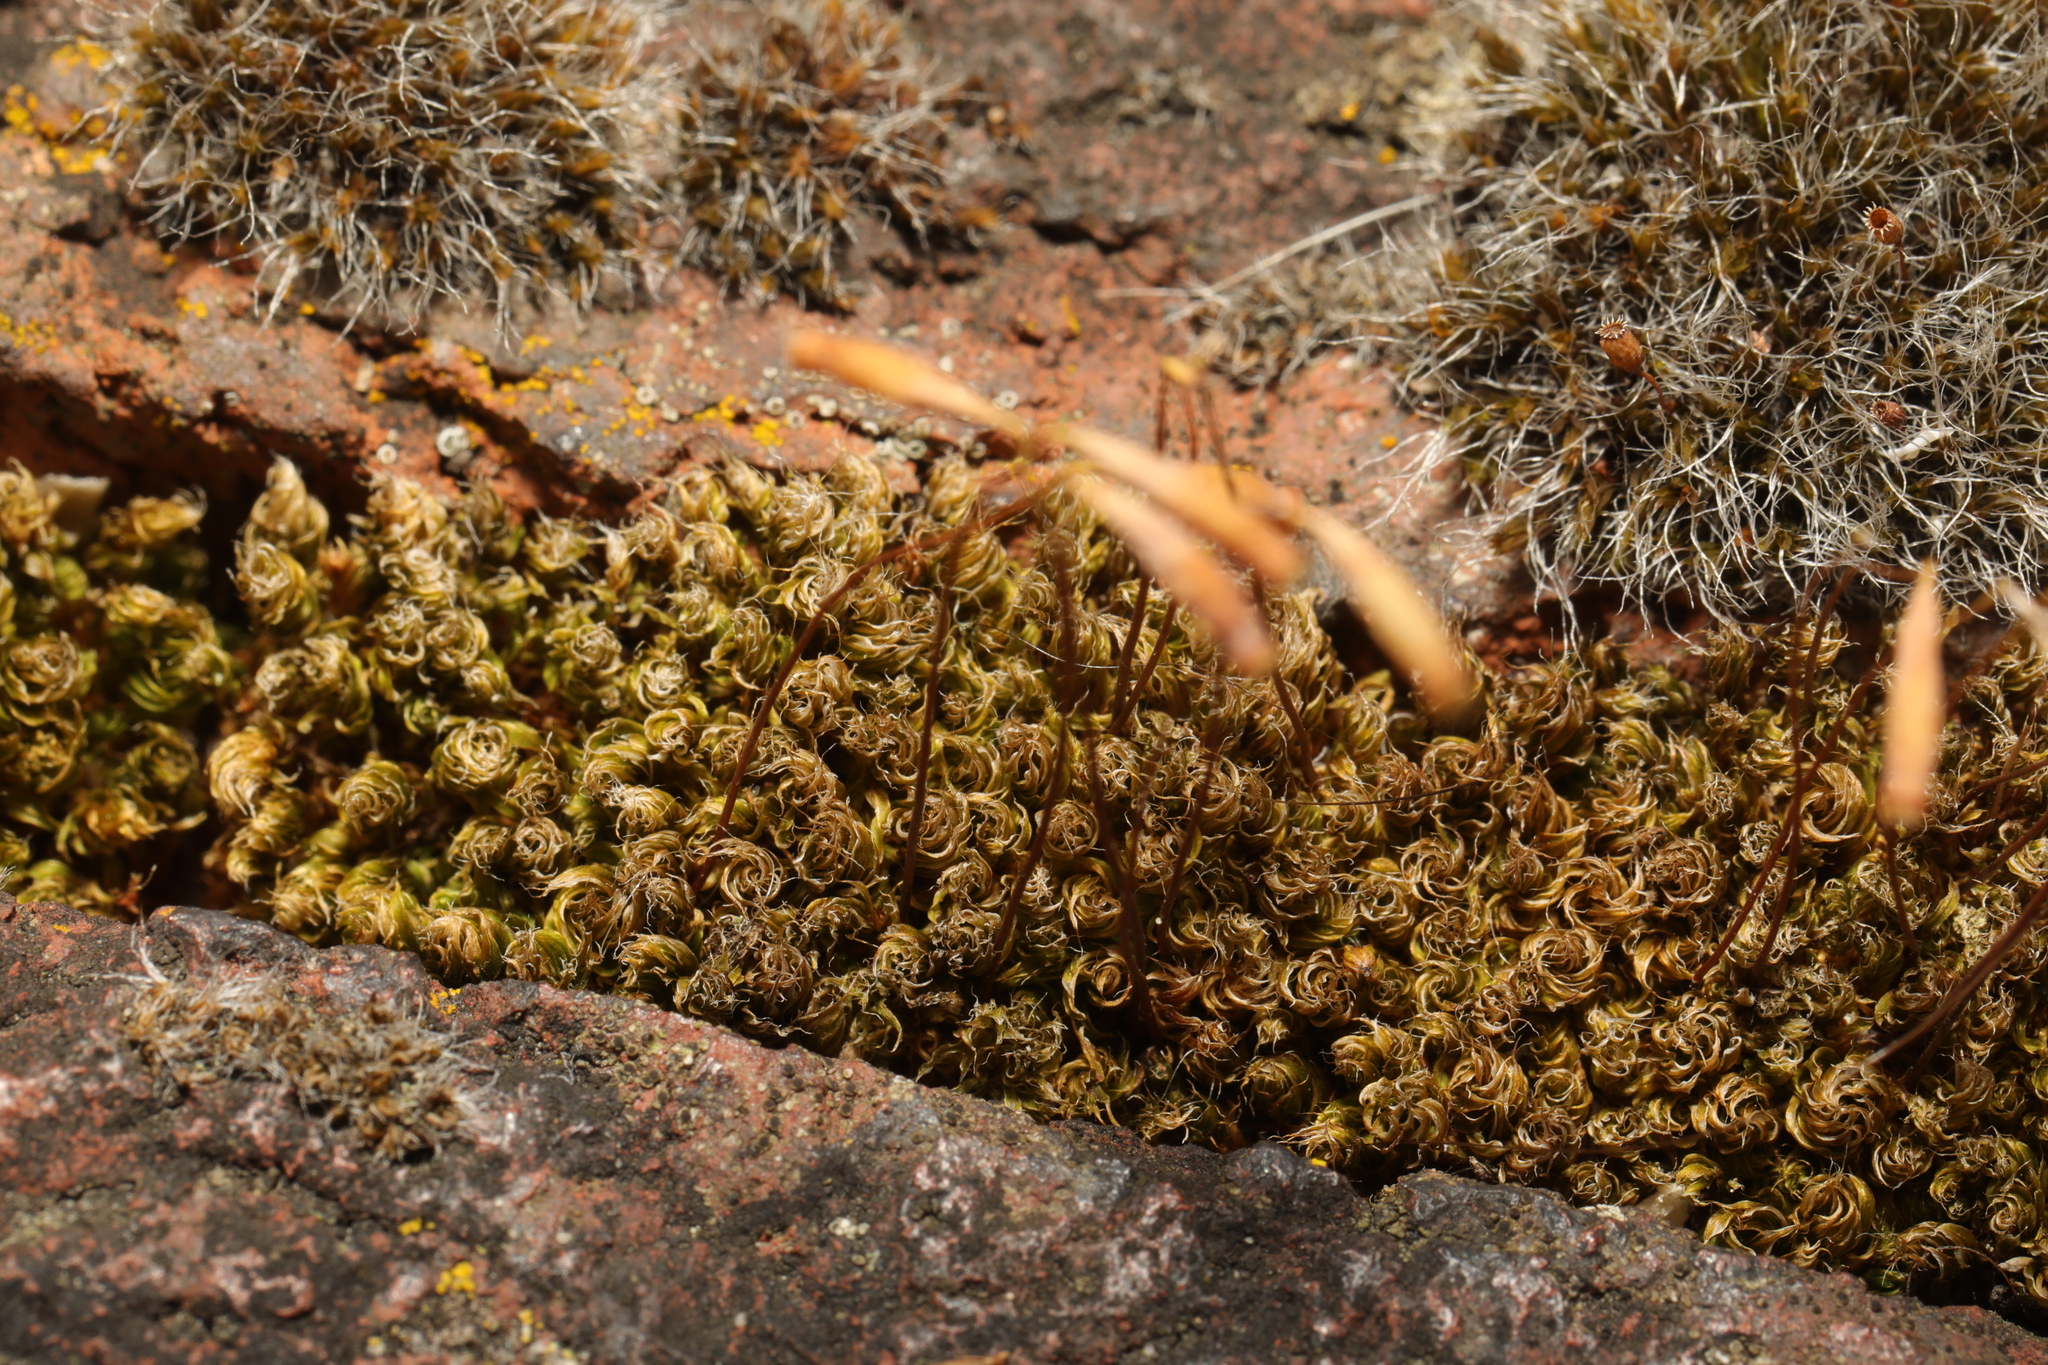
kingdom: Plantae
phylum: Bryophyta
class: Bryopsida
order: Bryales
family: Bryaceae
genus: Rosulabryum
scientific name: Rosulabryum capillare
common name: Capillary thread-moss
